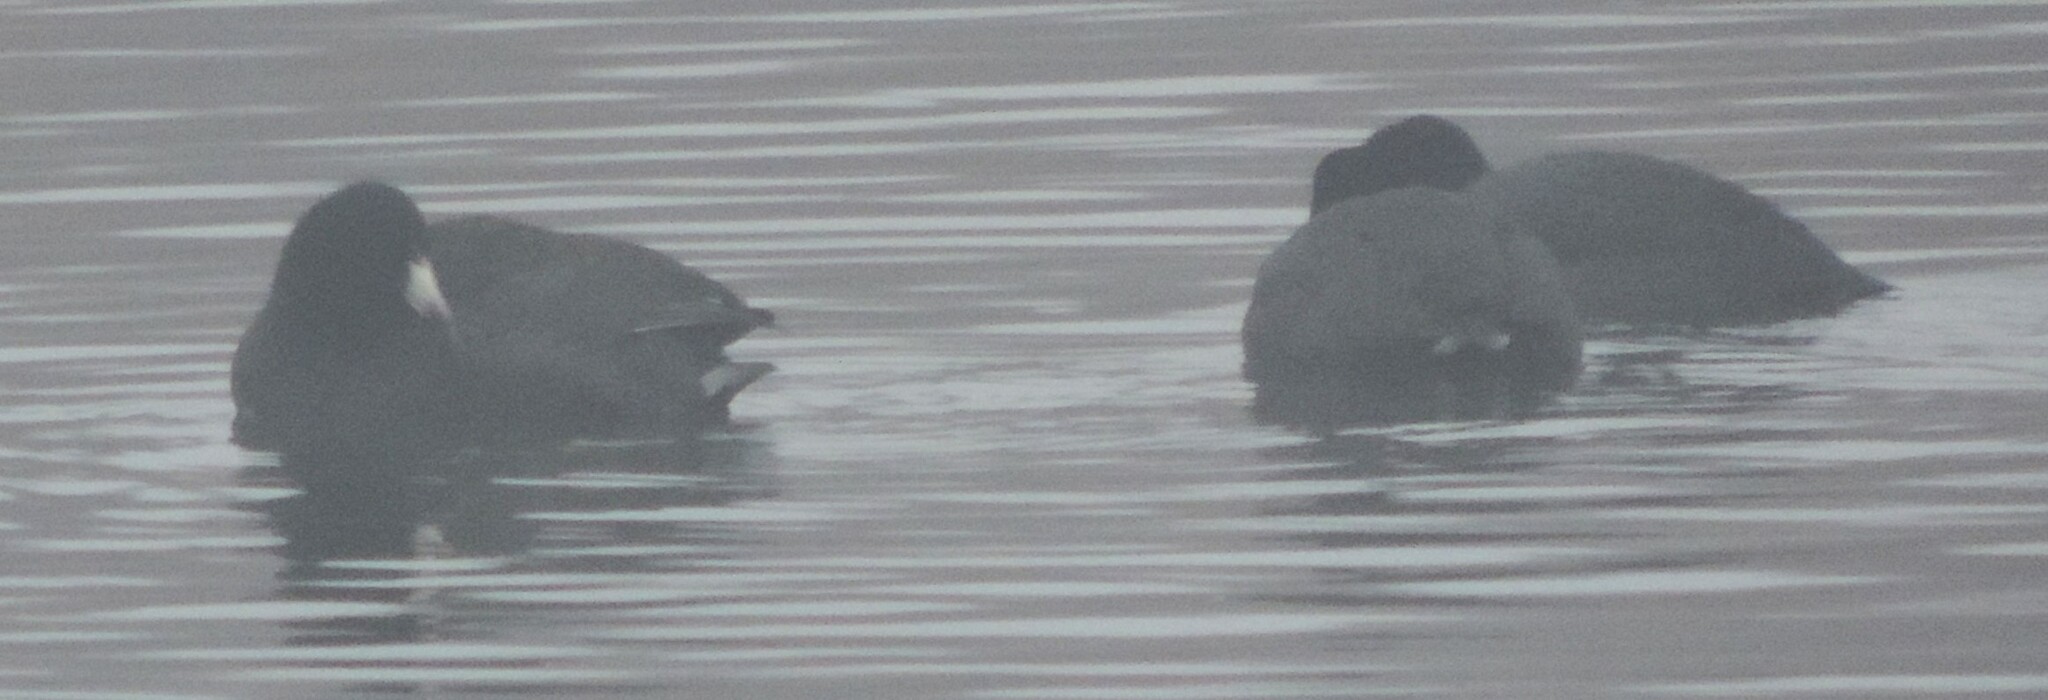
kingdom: Animalia
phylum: Chordata
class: Aves
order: Gruiformes
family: Rallidae
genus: Fulica
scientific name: Fulica americana
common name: American coot
